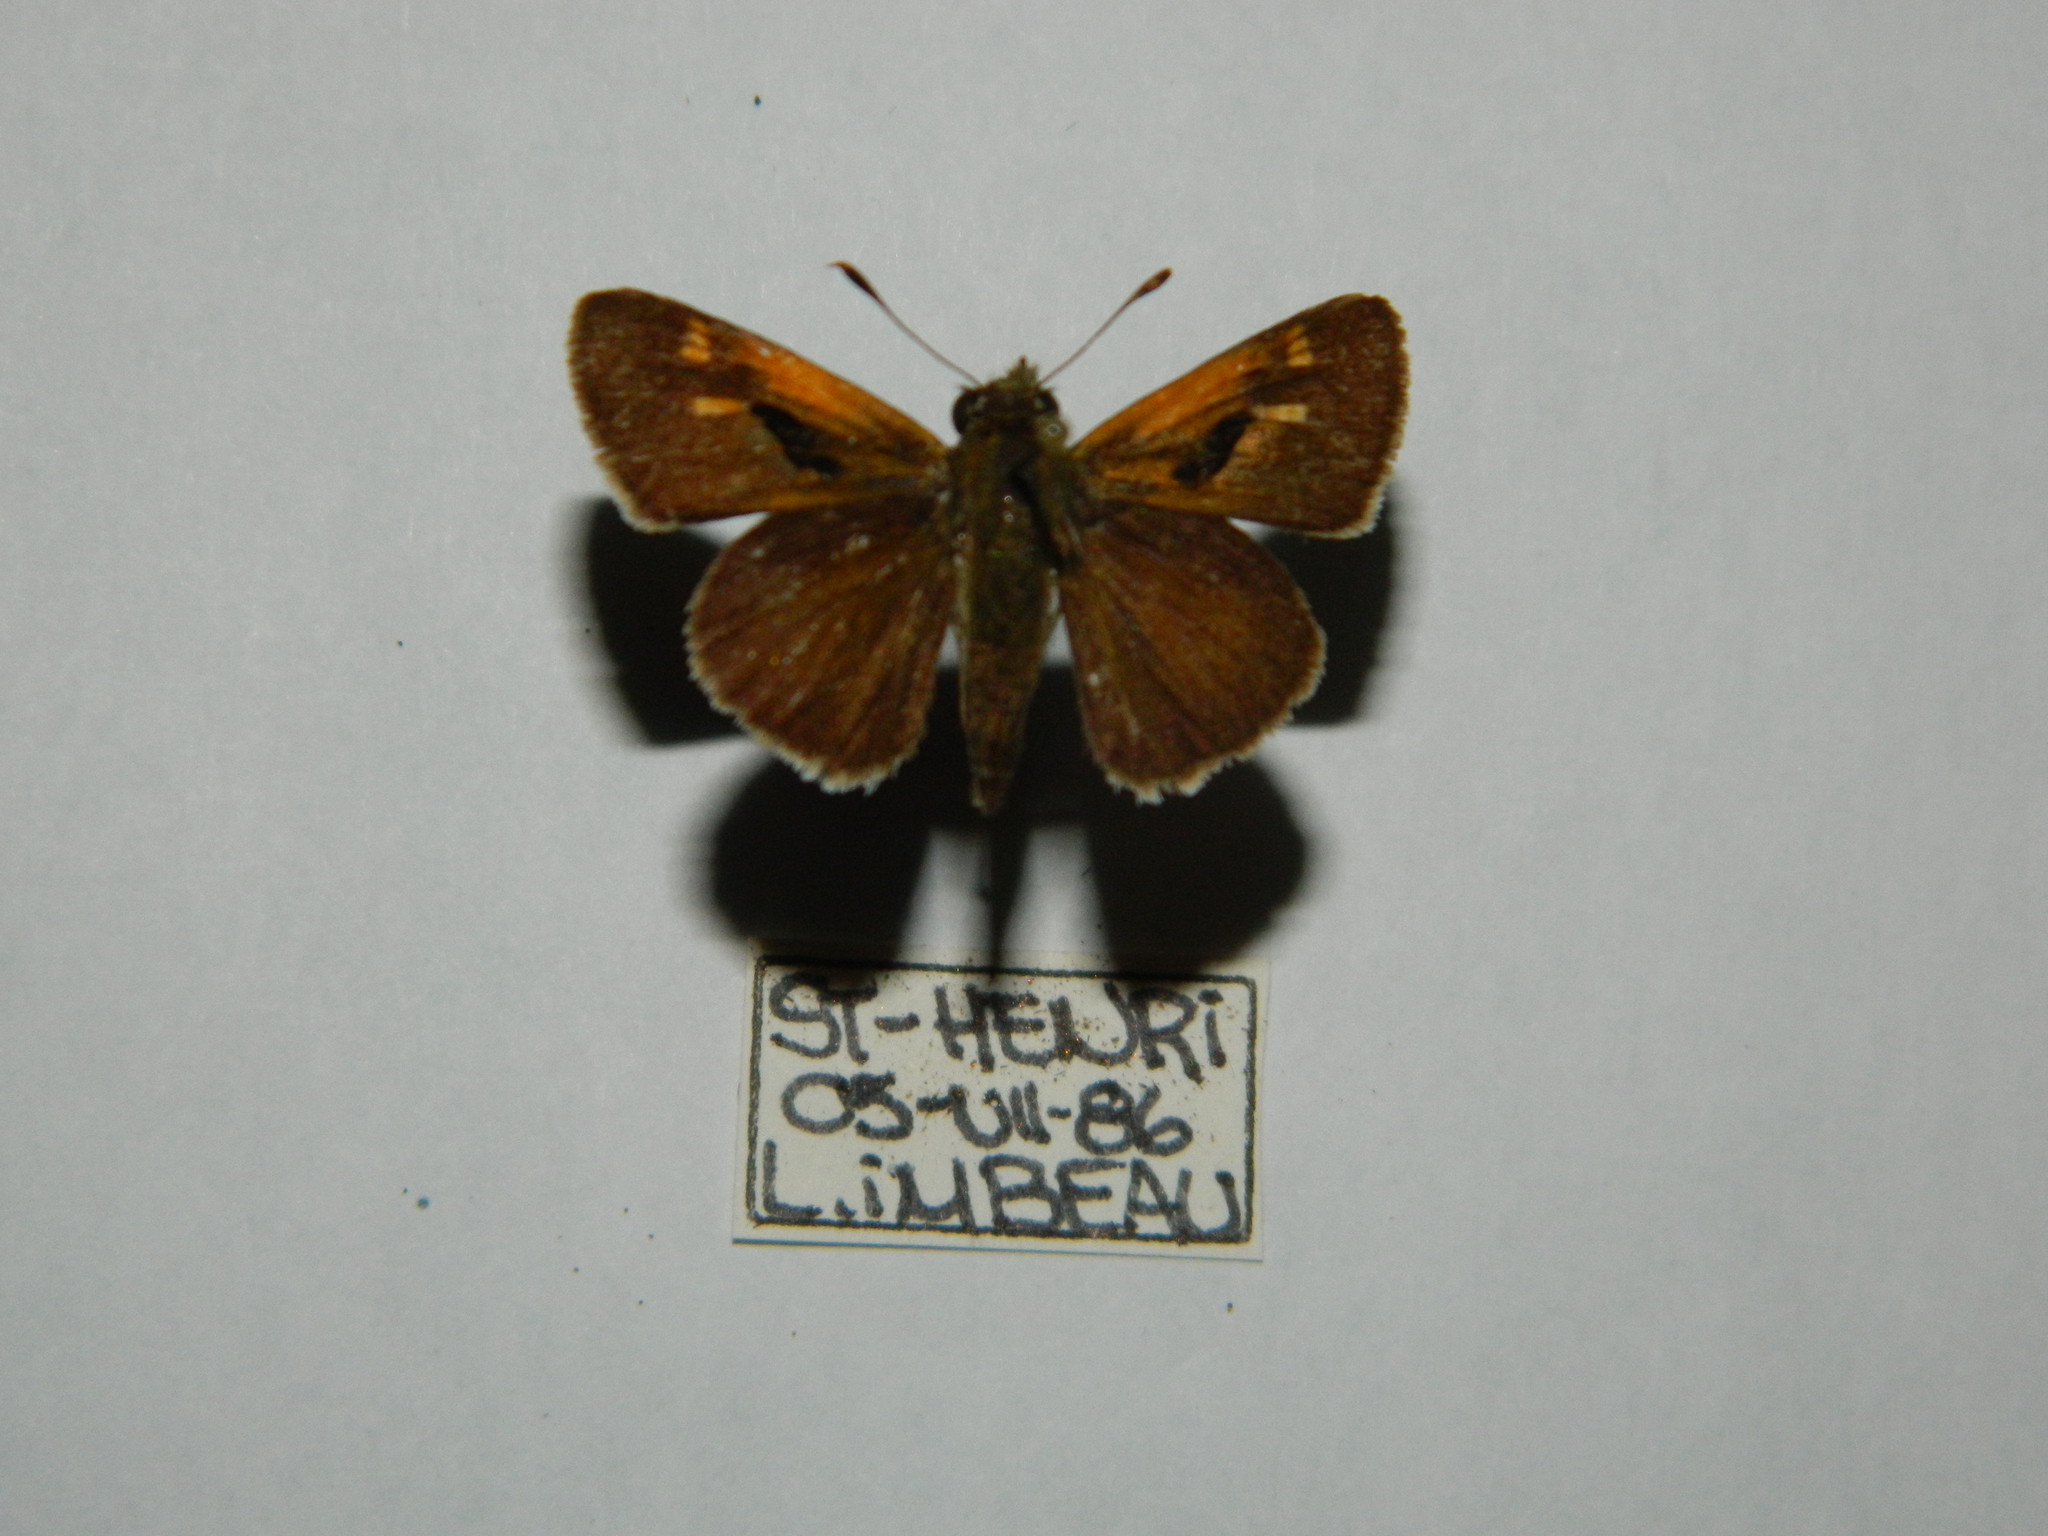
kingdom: Animalia
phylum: Arthropoda
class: Insecta
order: Lepidoptera
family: Hesperiidae
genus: Polites
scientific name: Polites themistocles
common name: Tawny-edged skipper
